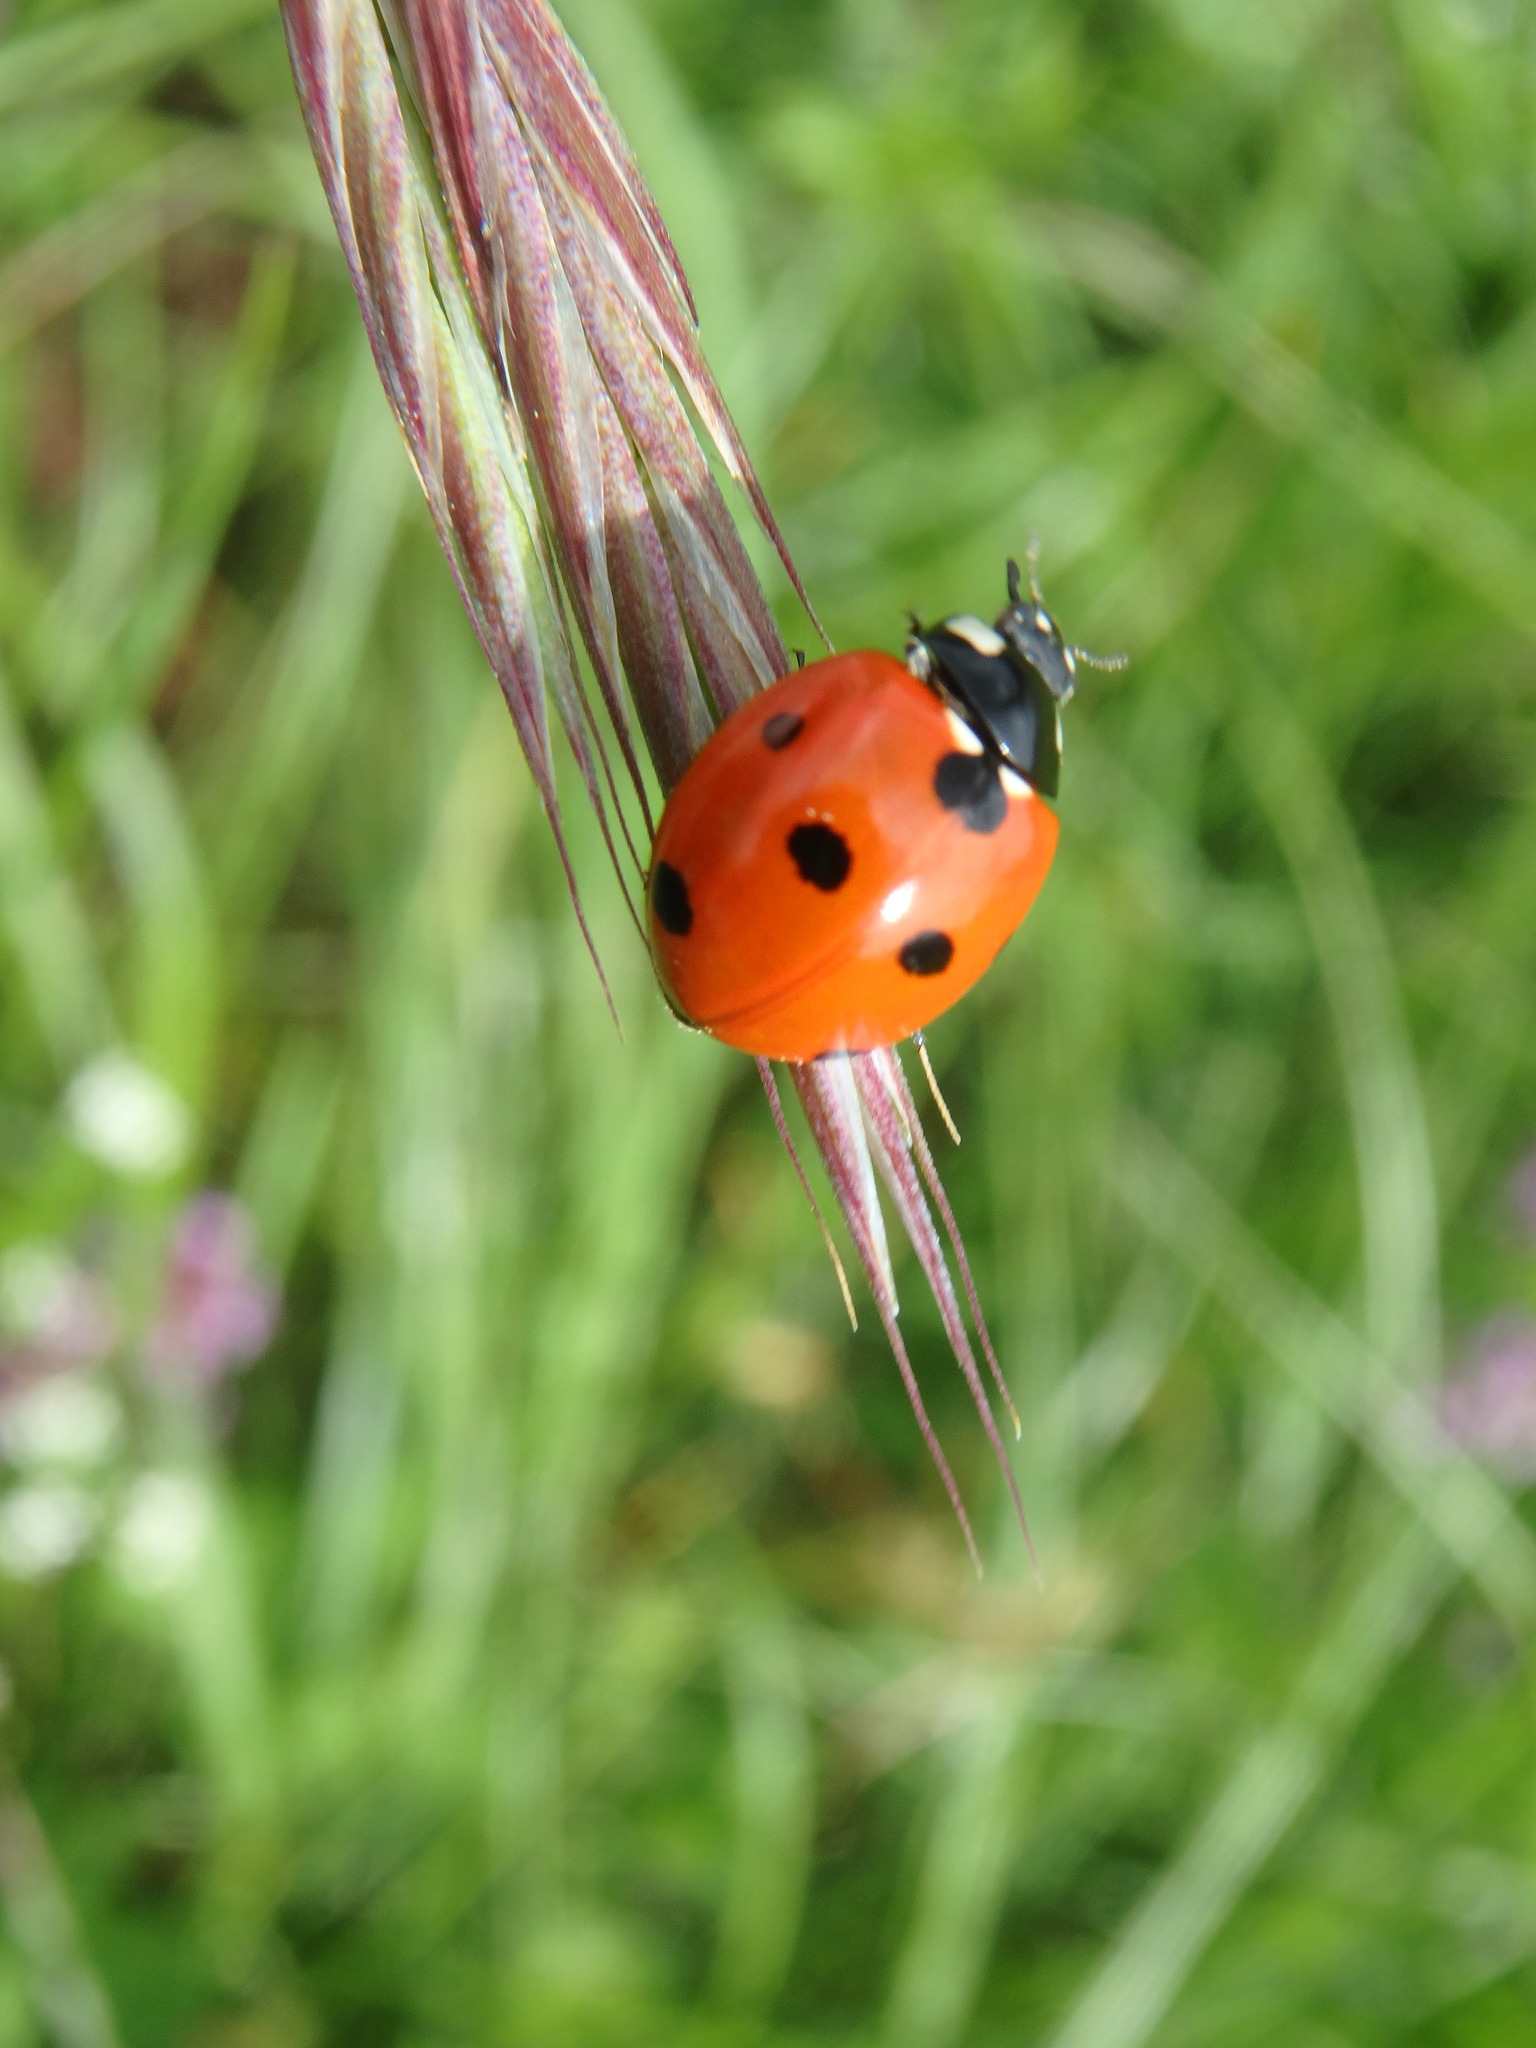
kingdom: Animalia
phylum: Arthropoda
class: Insecta
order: Coleoptera
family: Coccinellidae
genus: Coccinella
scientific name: Coccinella septempunctata
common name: Sevenspotted lady beetle
